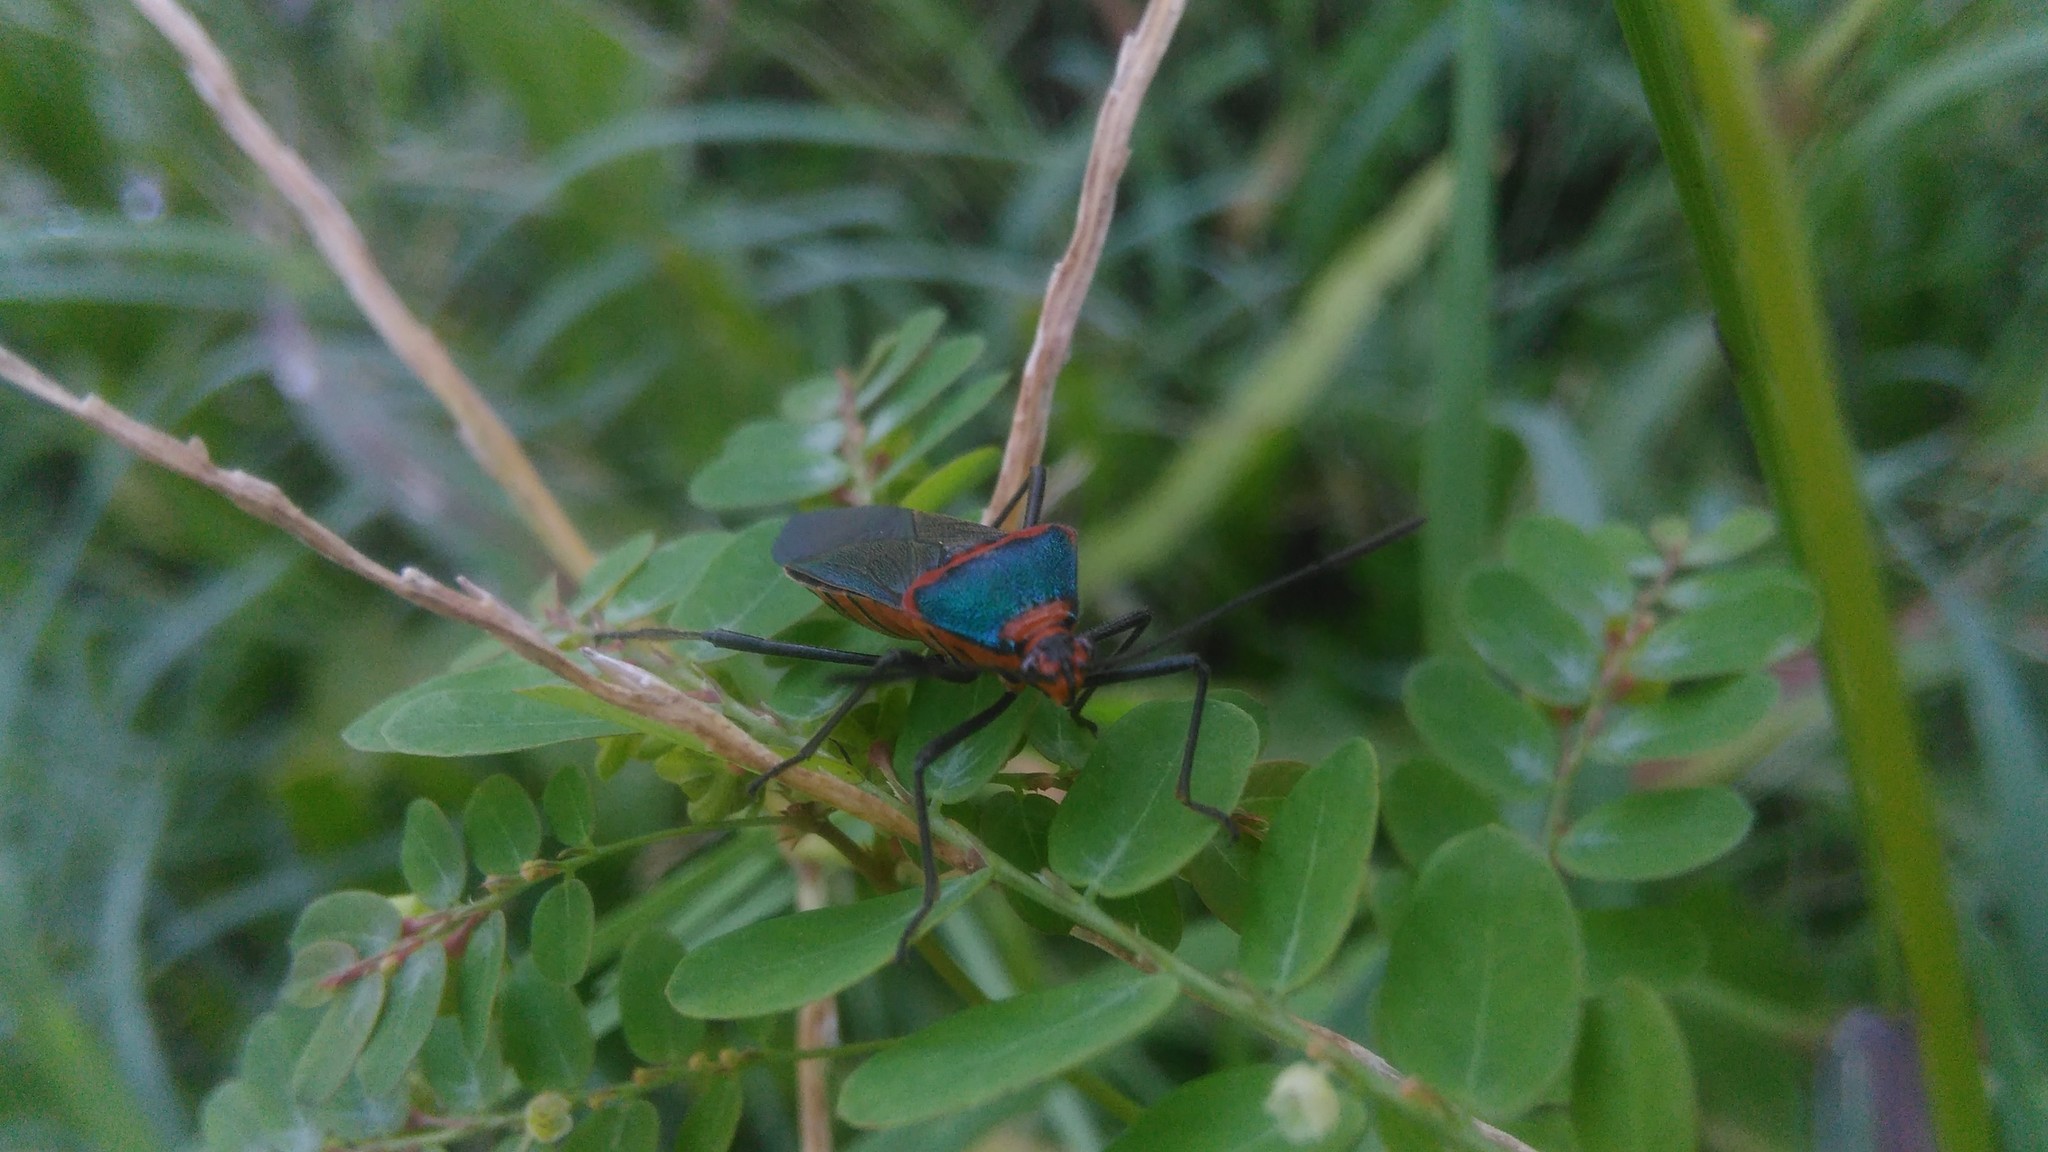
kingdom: Animalia
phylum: Arthropoda
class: Insecta
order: Hemiptera
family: Coreidae
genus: Sphictyrtus
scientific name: Sphictyrtus chrysis
